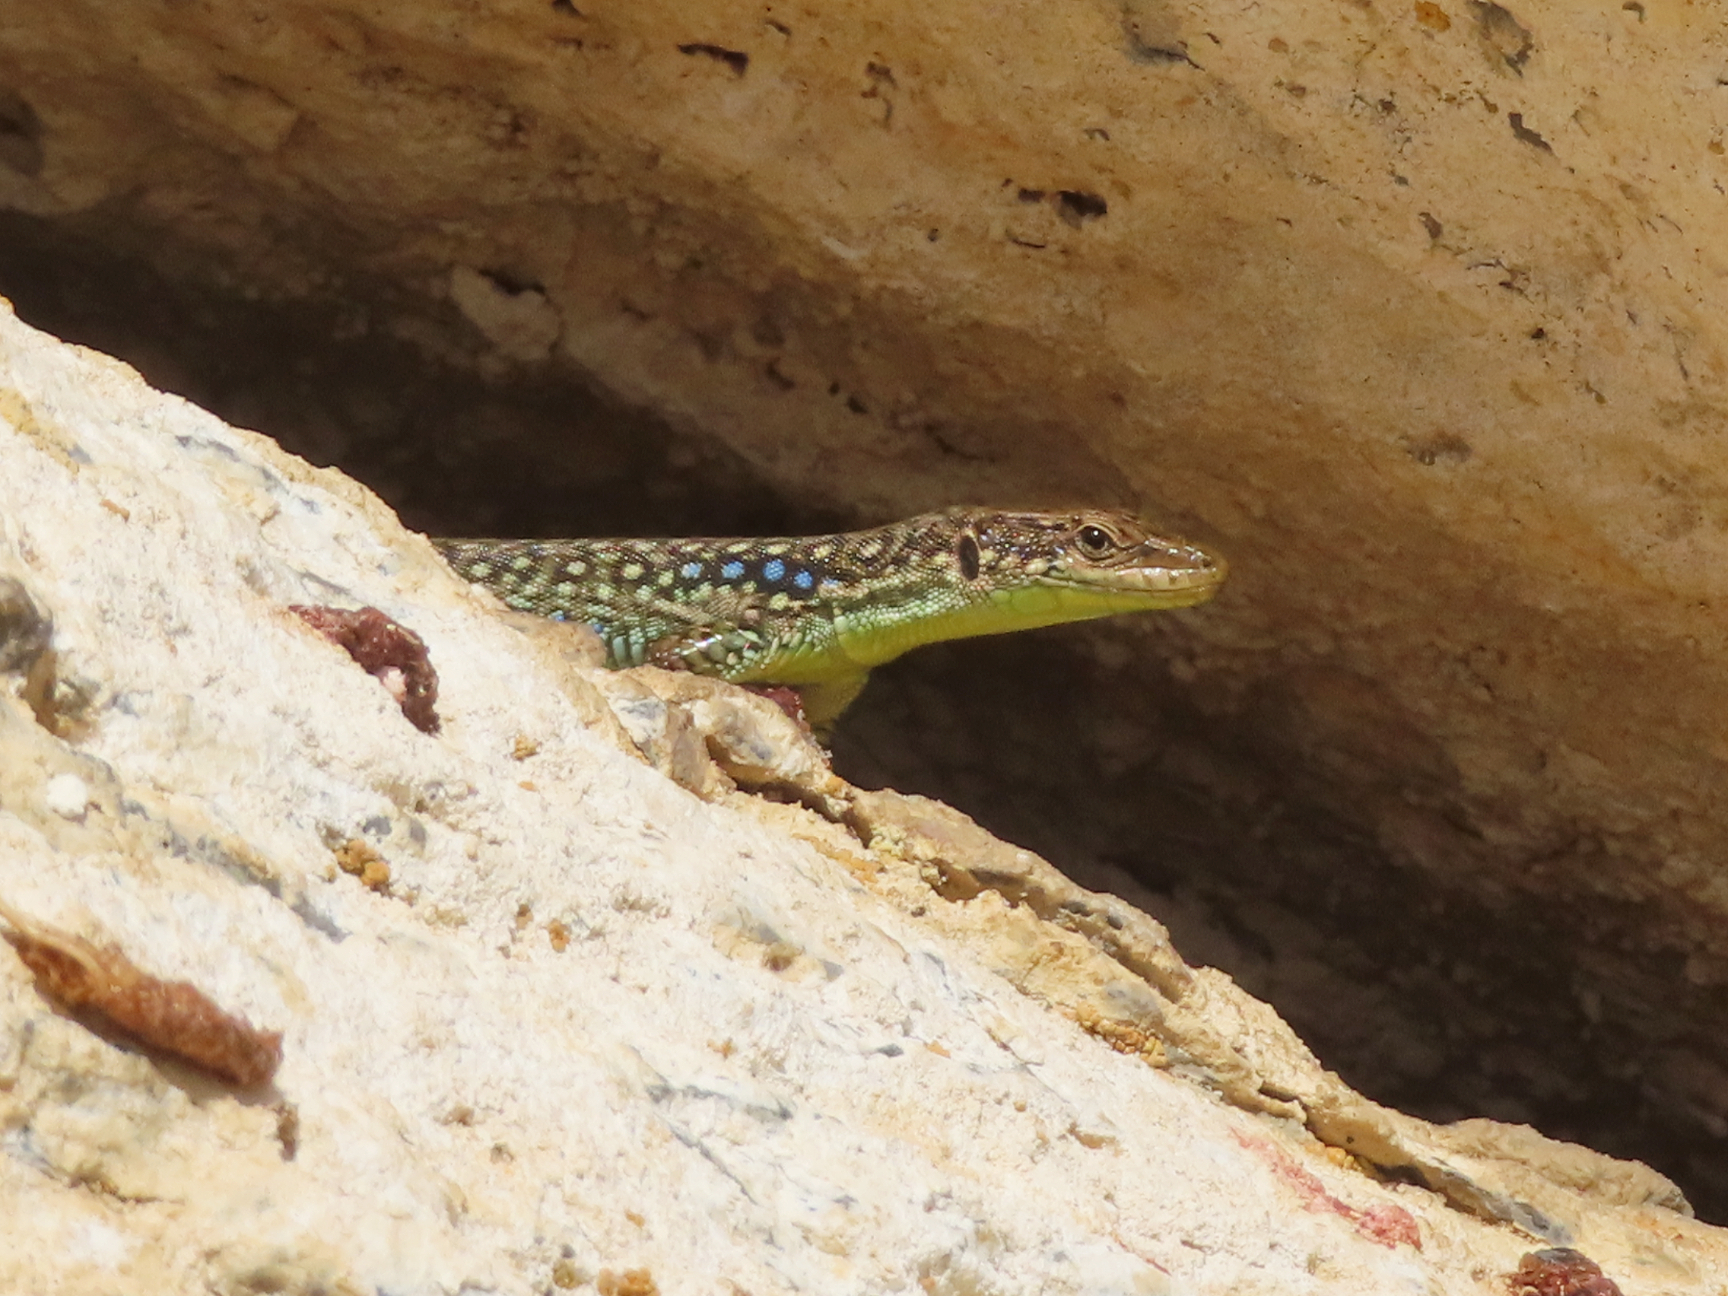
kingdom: Animalia
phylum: Chordata
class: Squamata
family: Lacertidae
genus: Darevskia
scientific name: Darevskia
